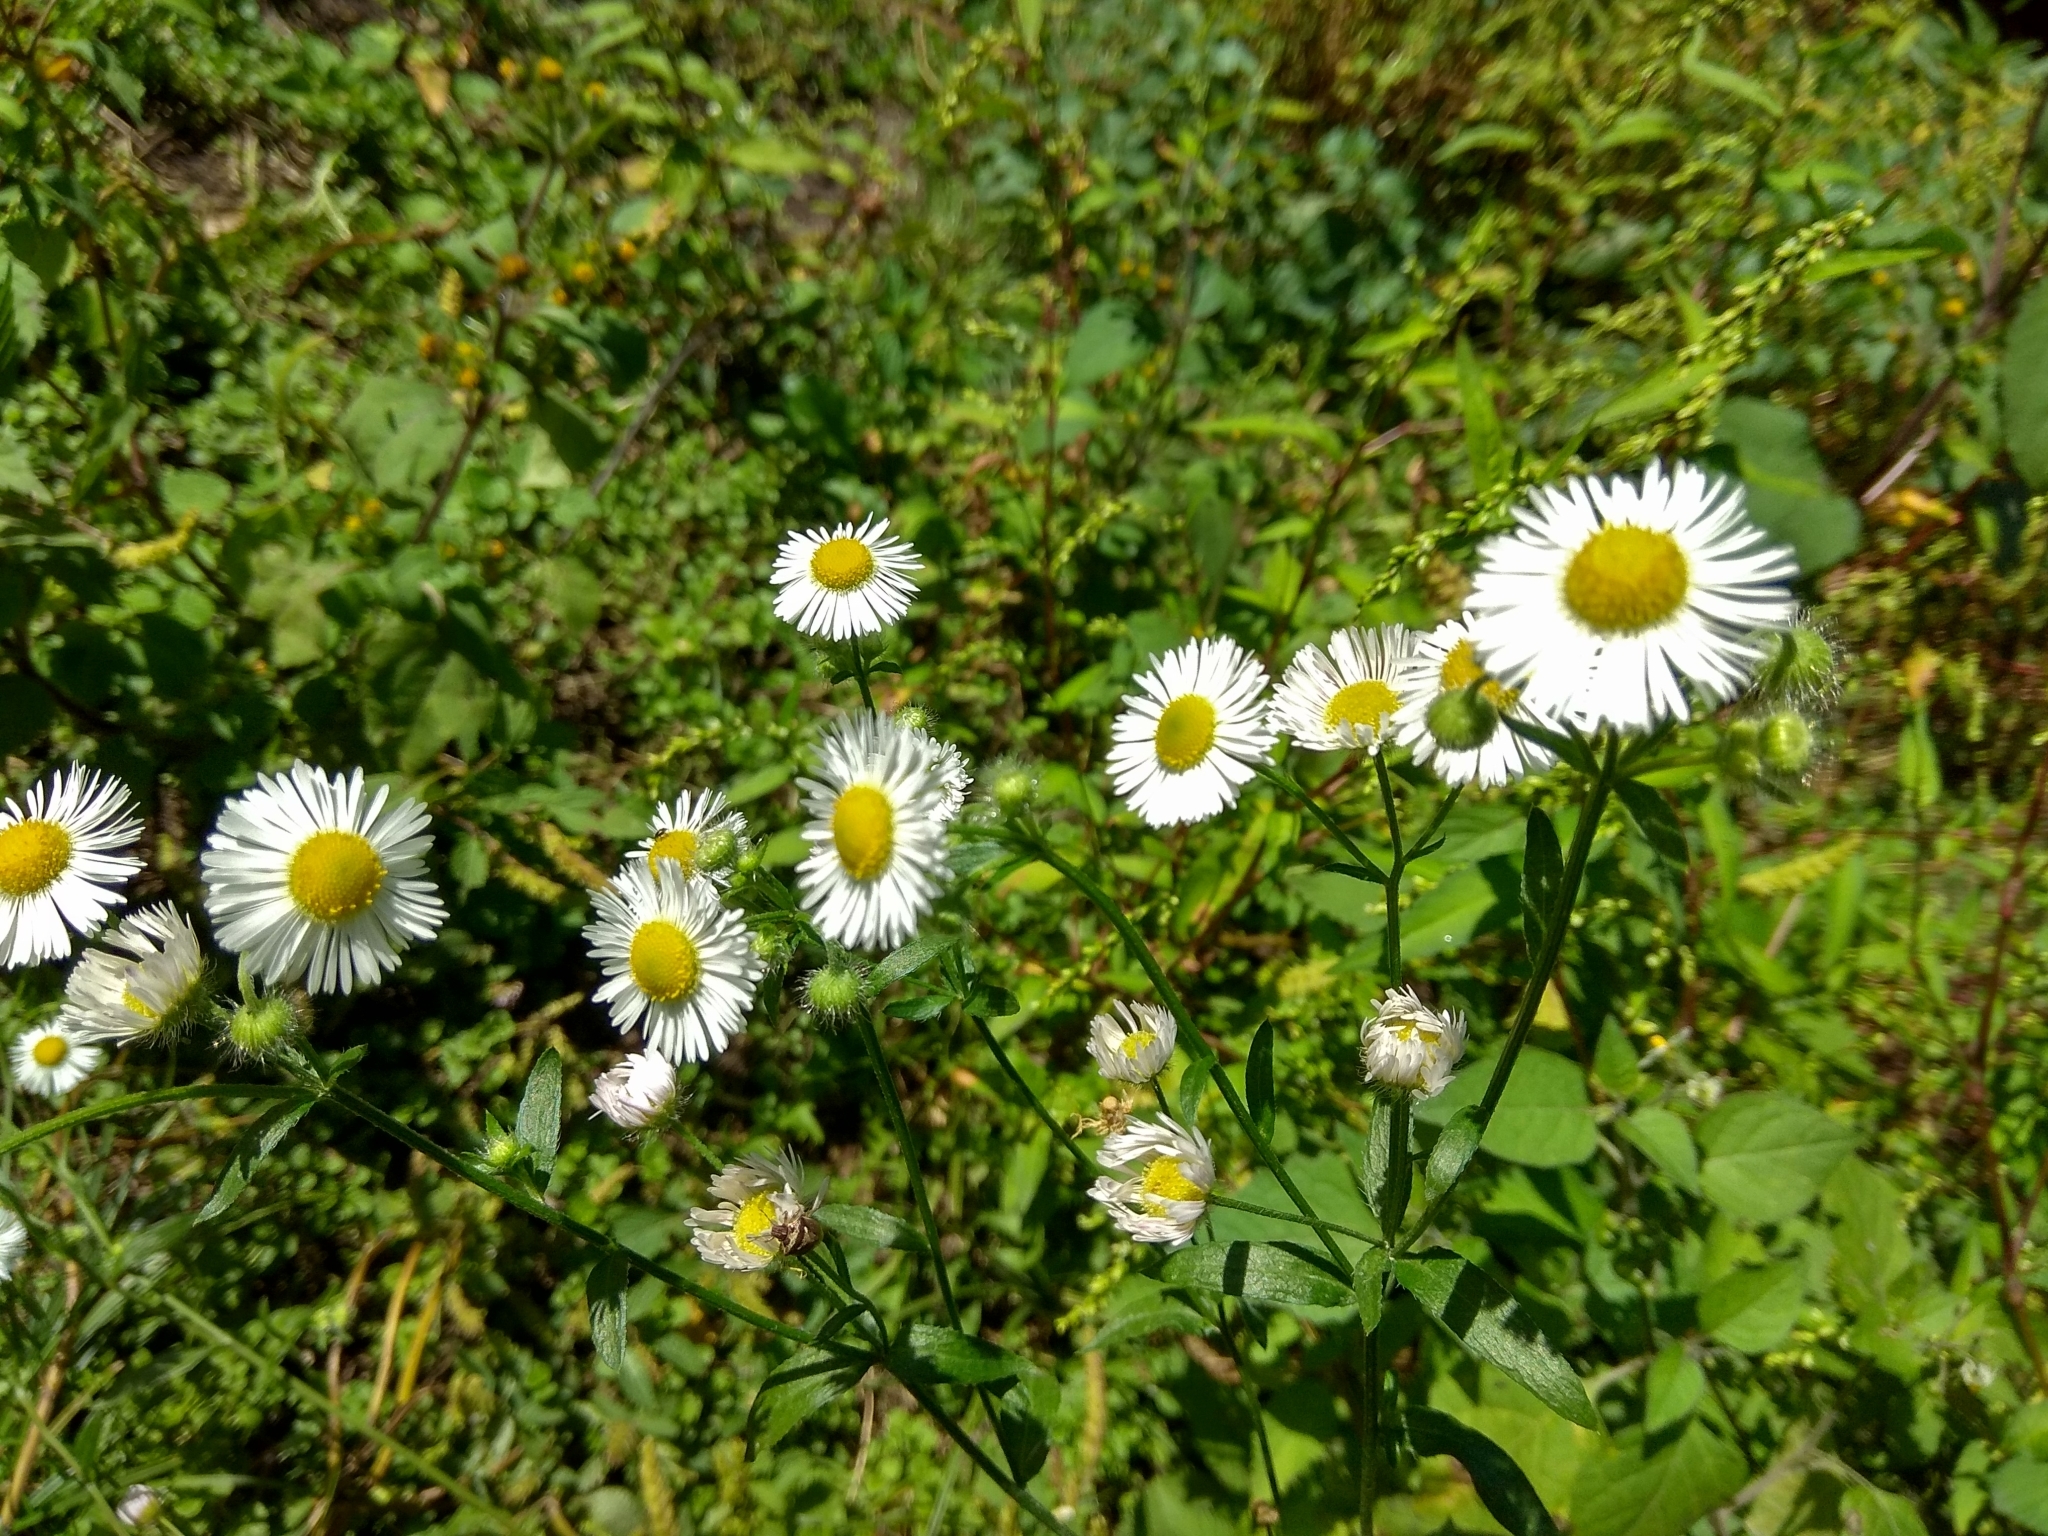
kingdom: Plantae
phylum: Tracheophyta
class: Magnoliopsida
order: Asterales
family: Asteraceae
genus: Erigeron
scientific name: Erigeron annuus
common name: Tall fleabane
